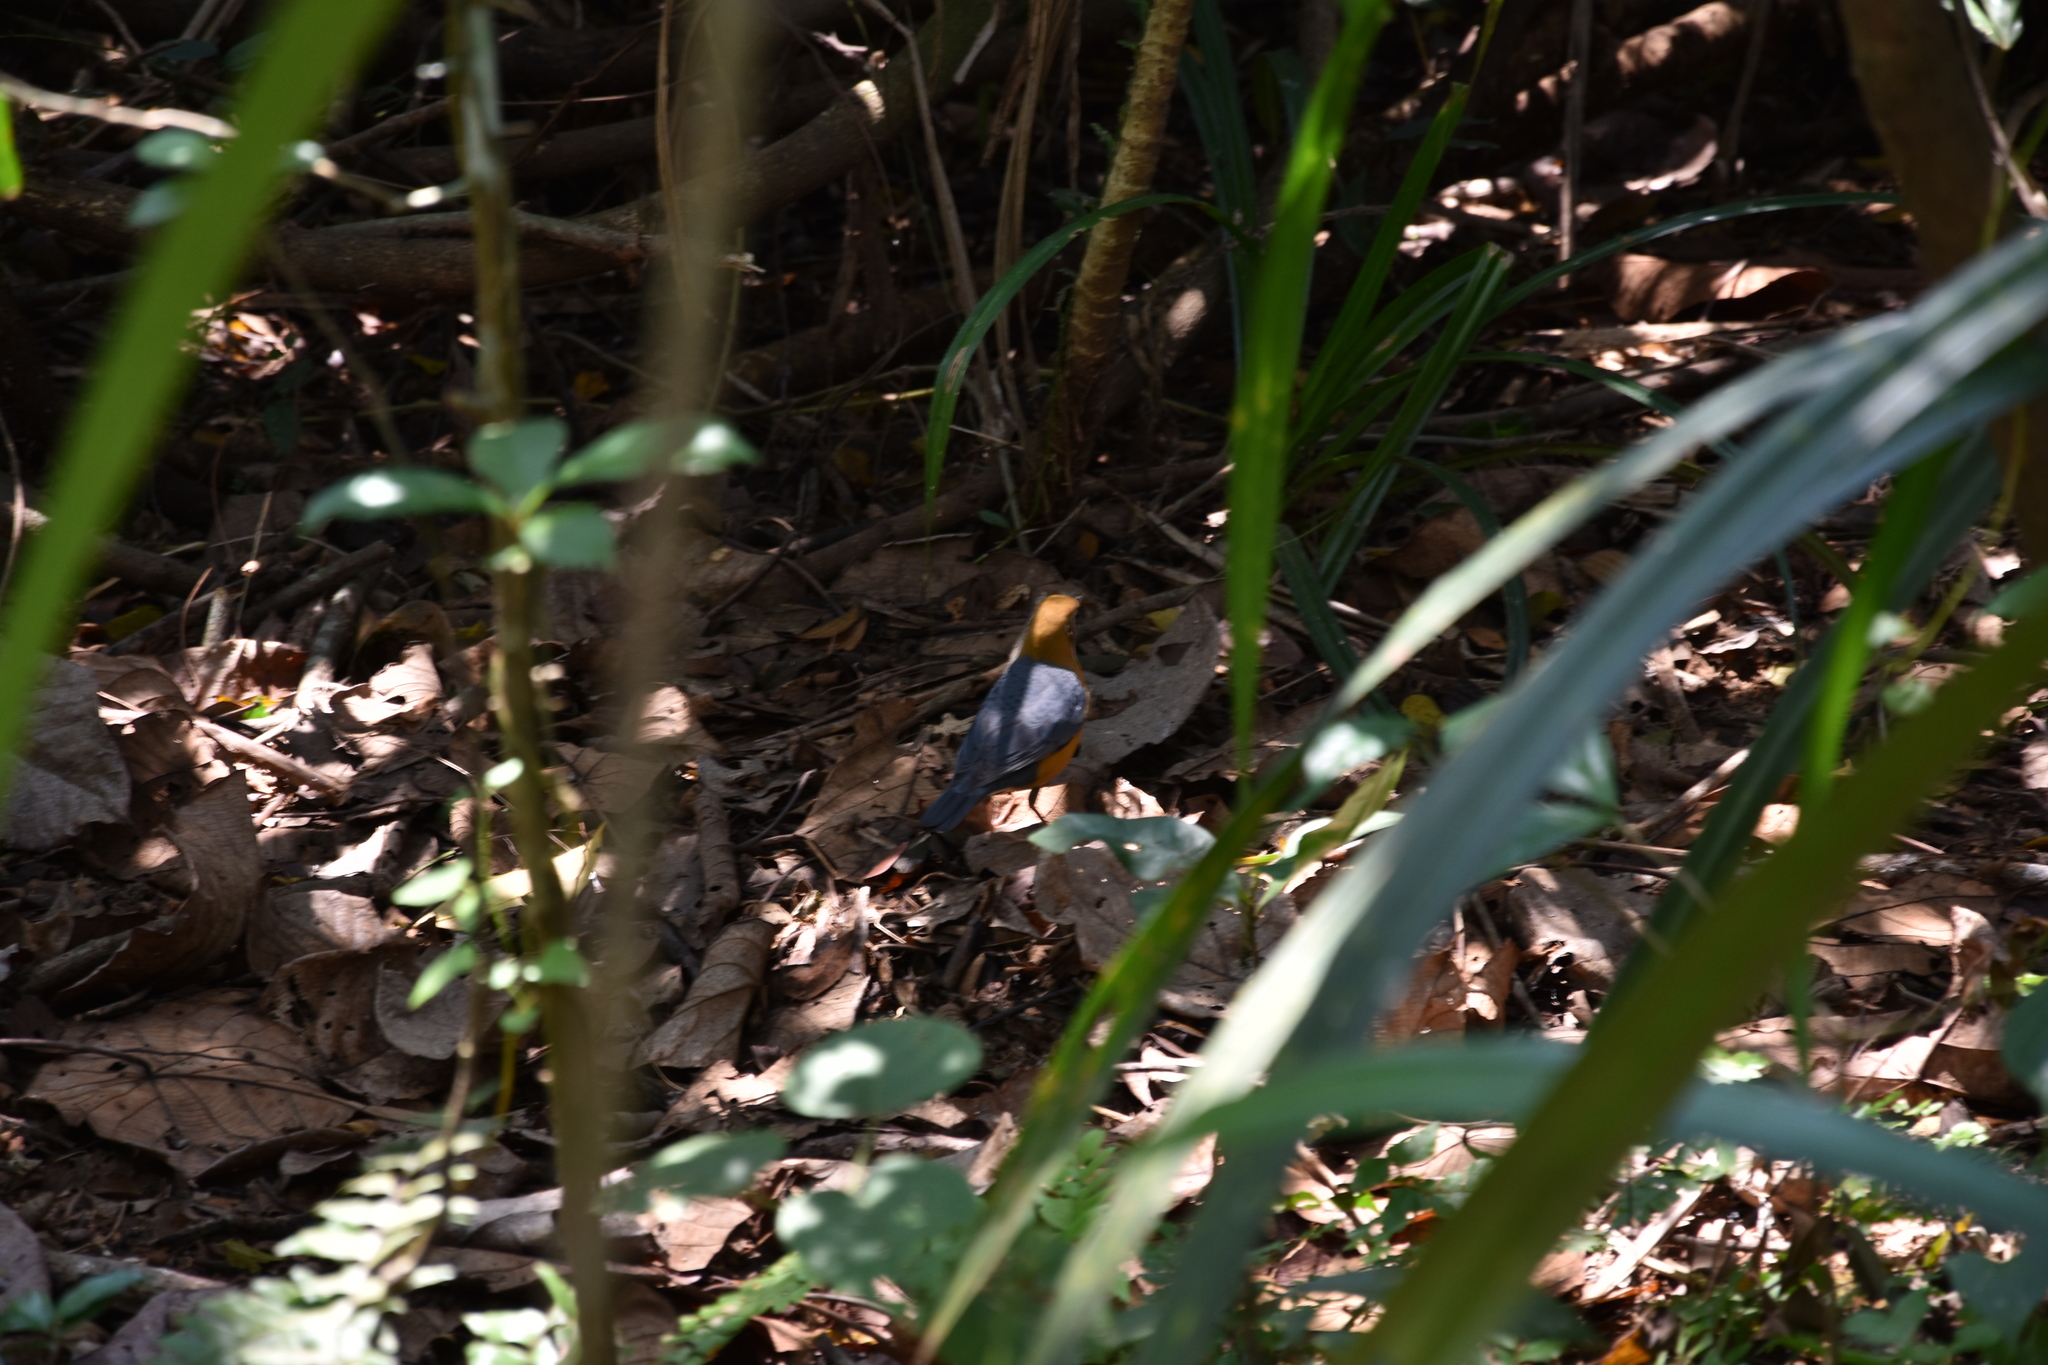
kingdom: Animalia
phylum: Chordata
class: Aves
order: Passeriformes
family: Turdidae
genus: Geokichla
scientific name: Geokichla citrina
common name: Orange-headed thrush
